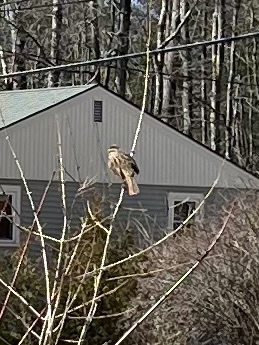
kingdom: Animalia
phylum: Chordata
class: Aves
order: Passeriformes
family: Passerellidae
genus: Melospiza
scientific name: Melospiza melodia
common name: Song sparrow
